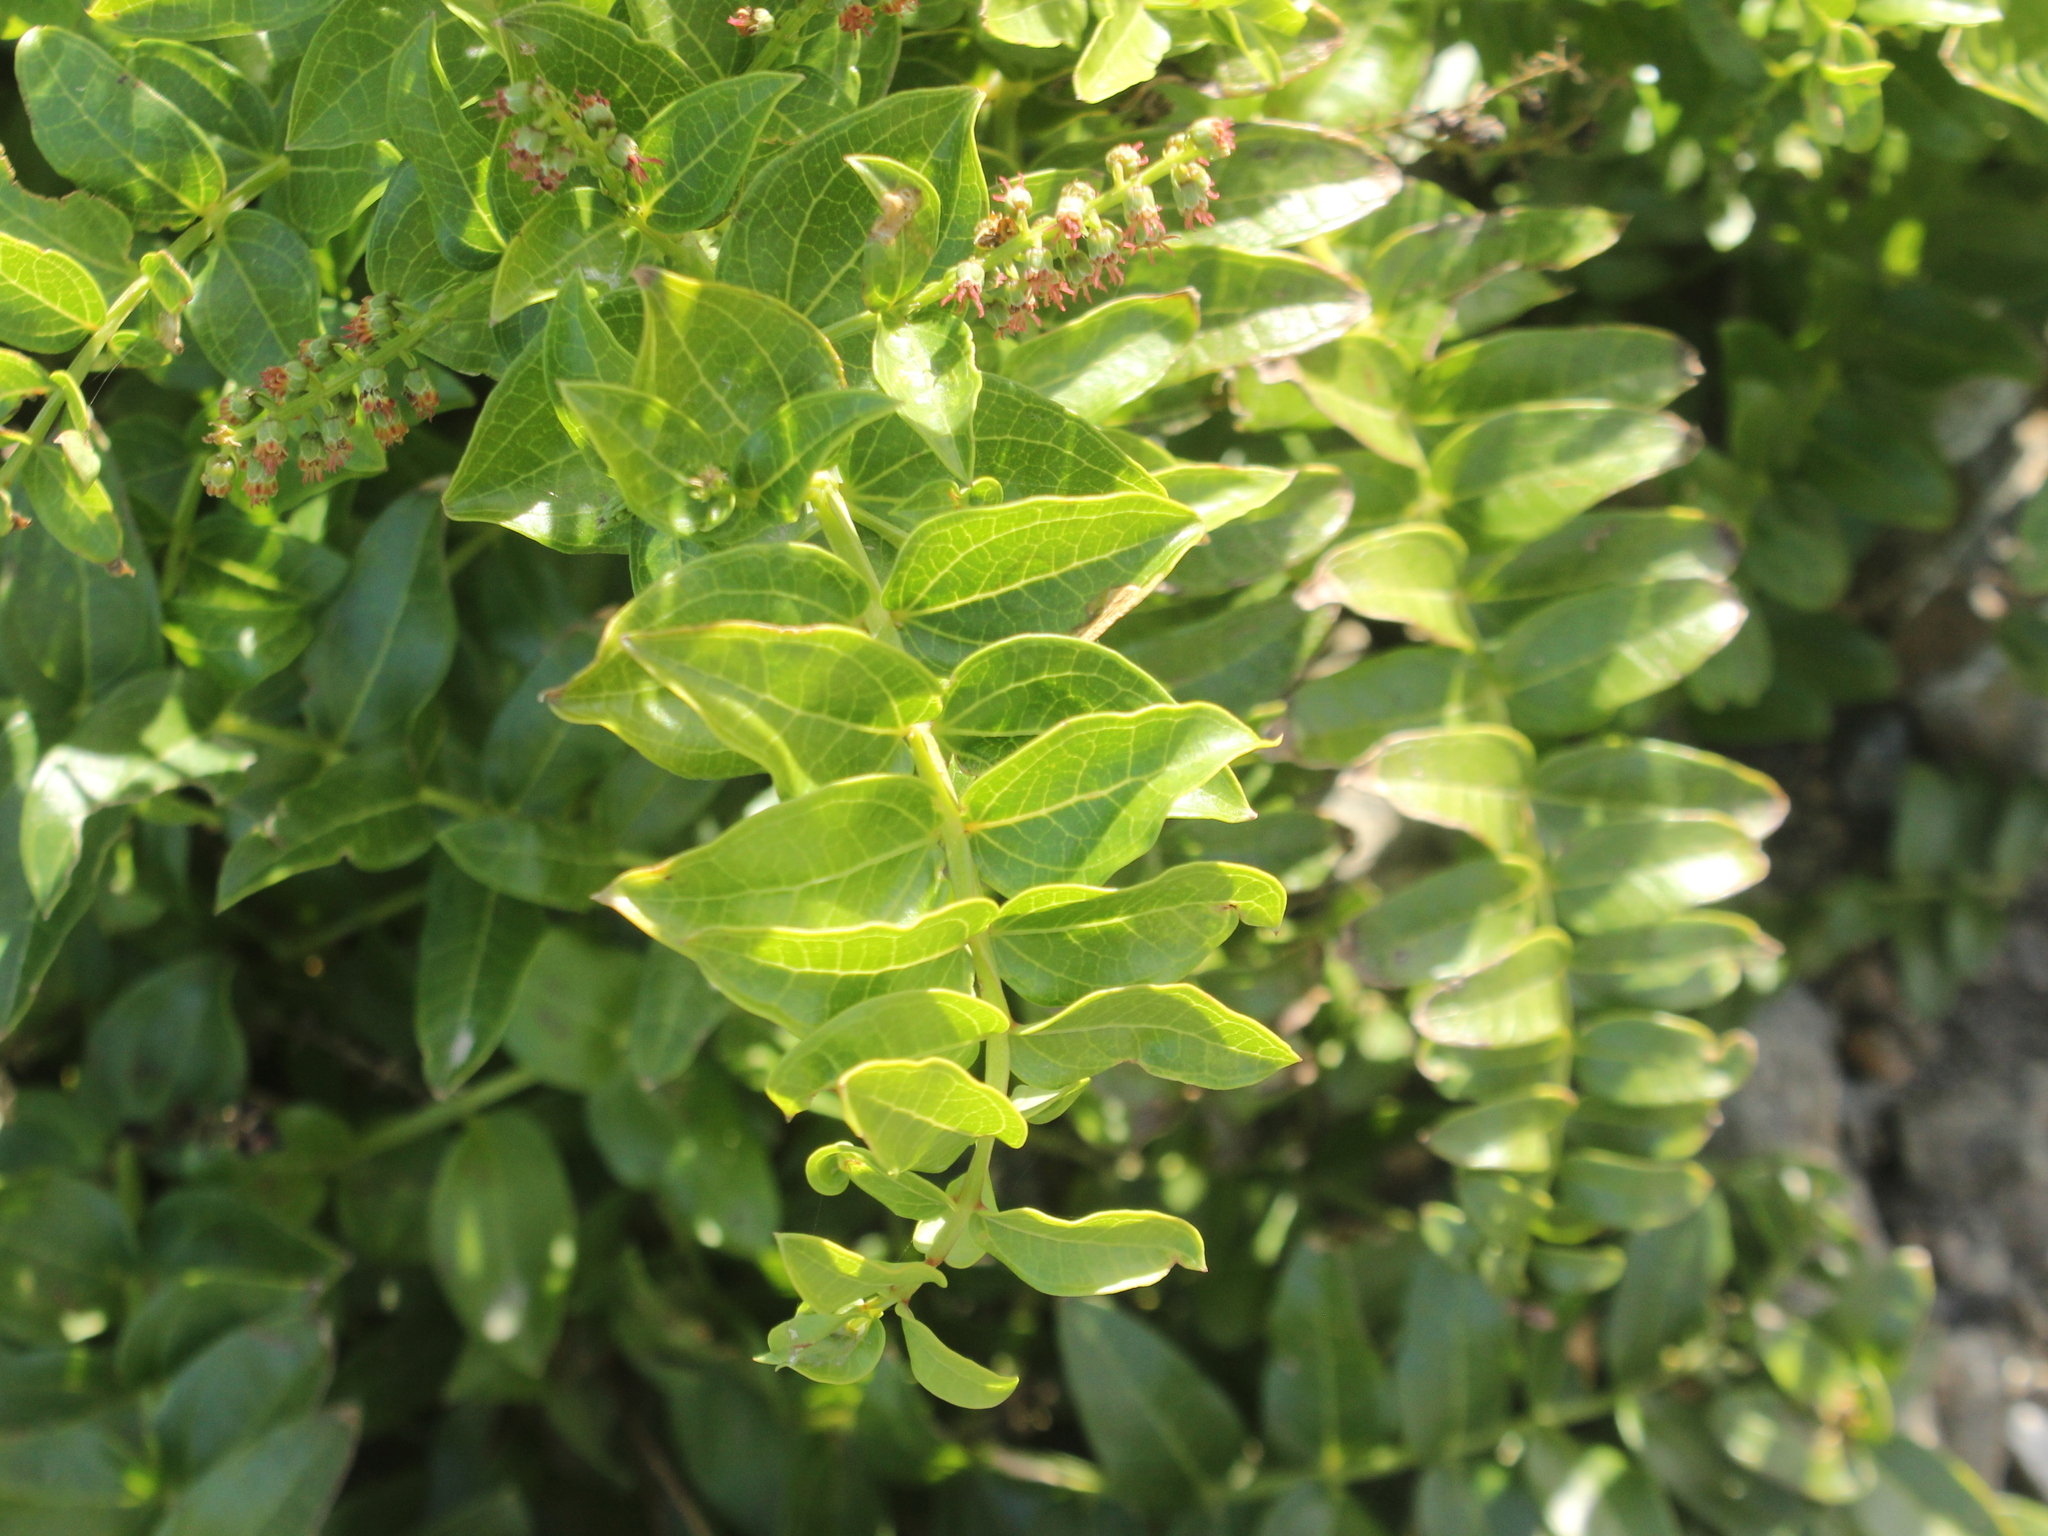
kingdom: Plantae
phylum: Tracheophyta
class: Magnoliopsida
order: Cucurbitales
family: Coriariaceae
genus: Coriaria
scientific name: Coriaria arborea
